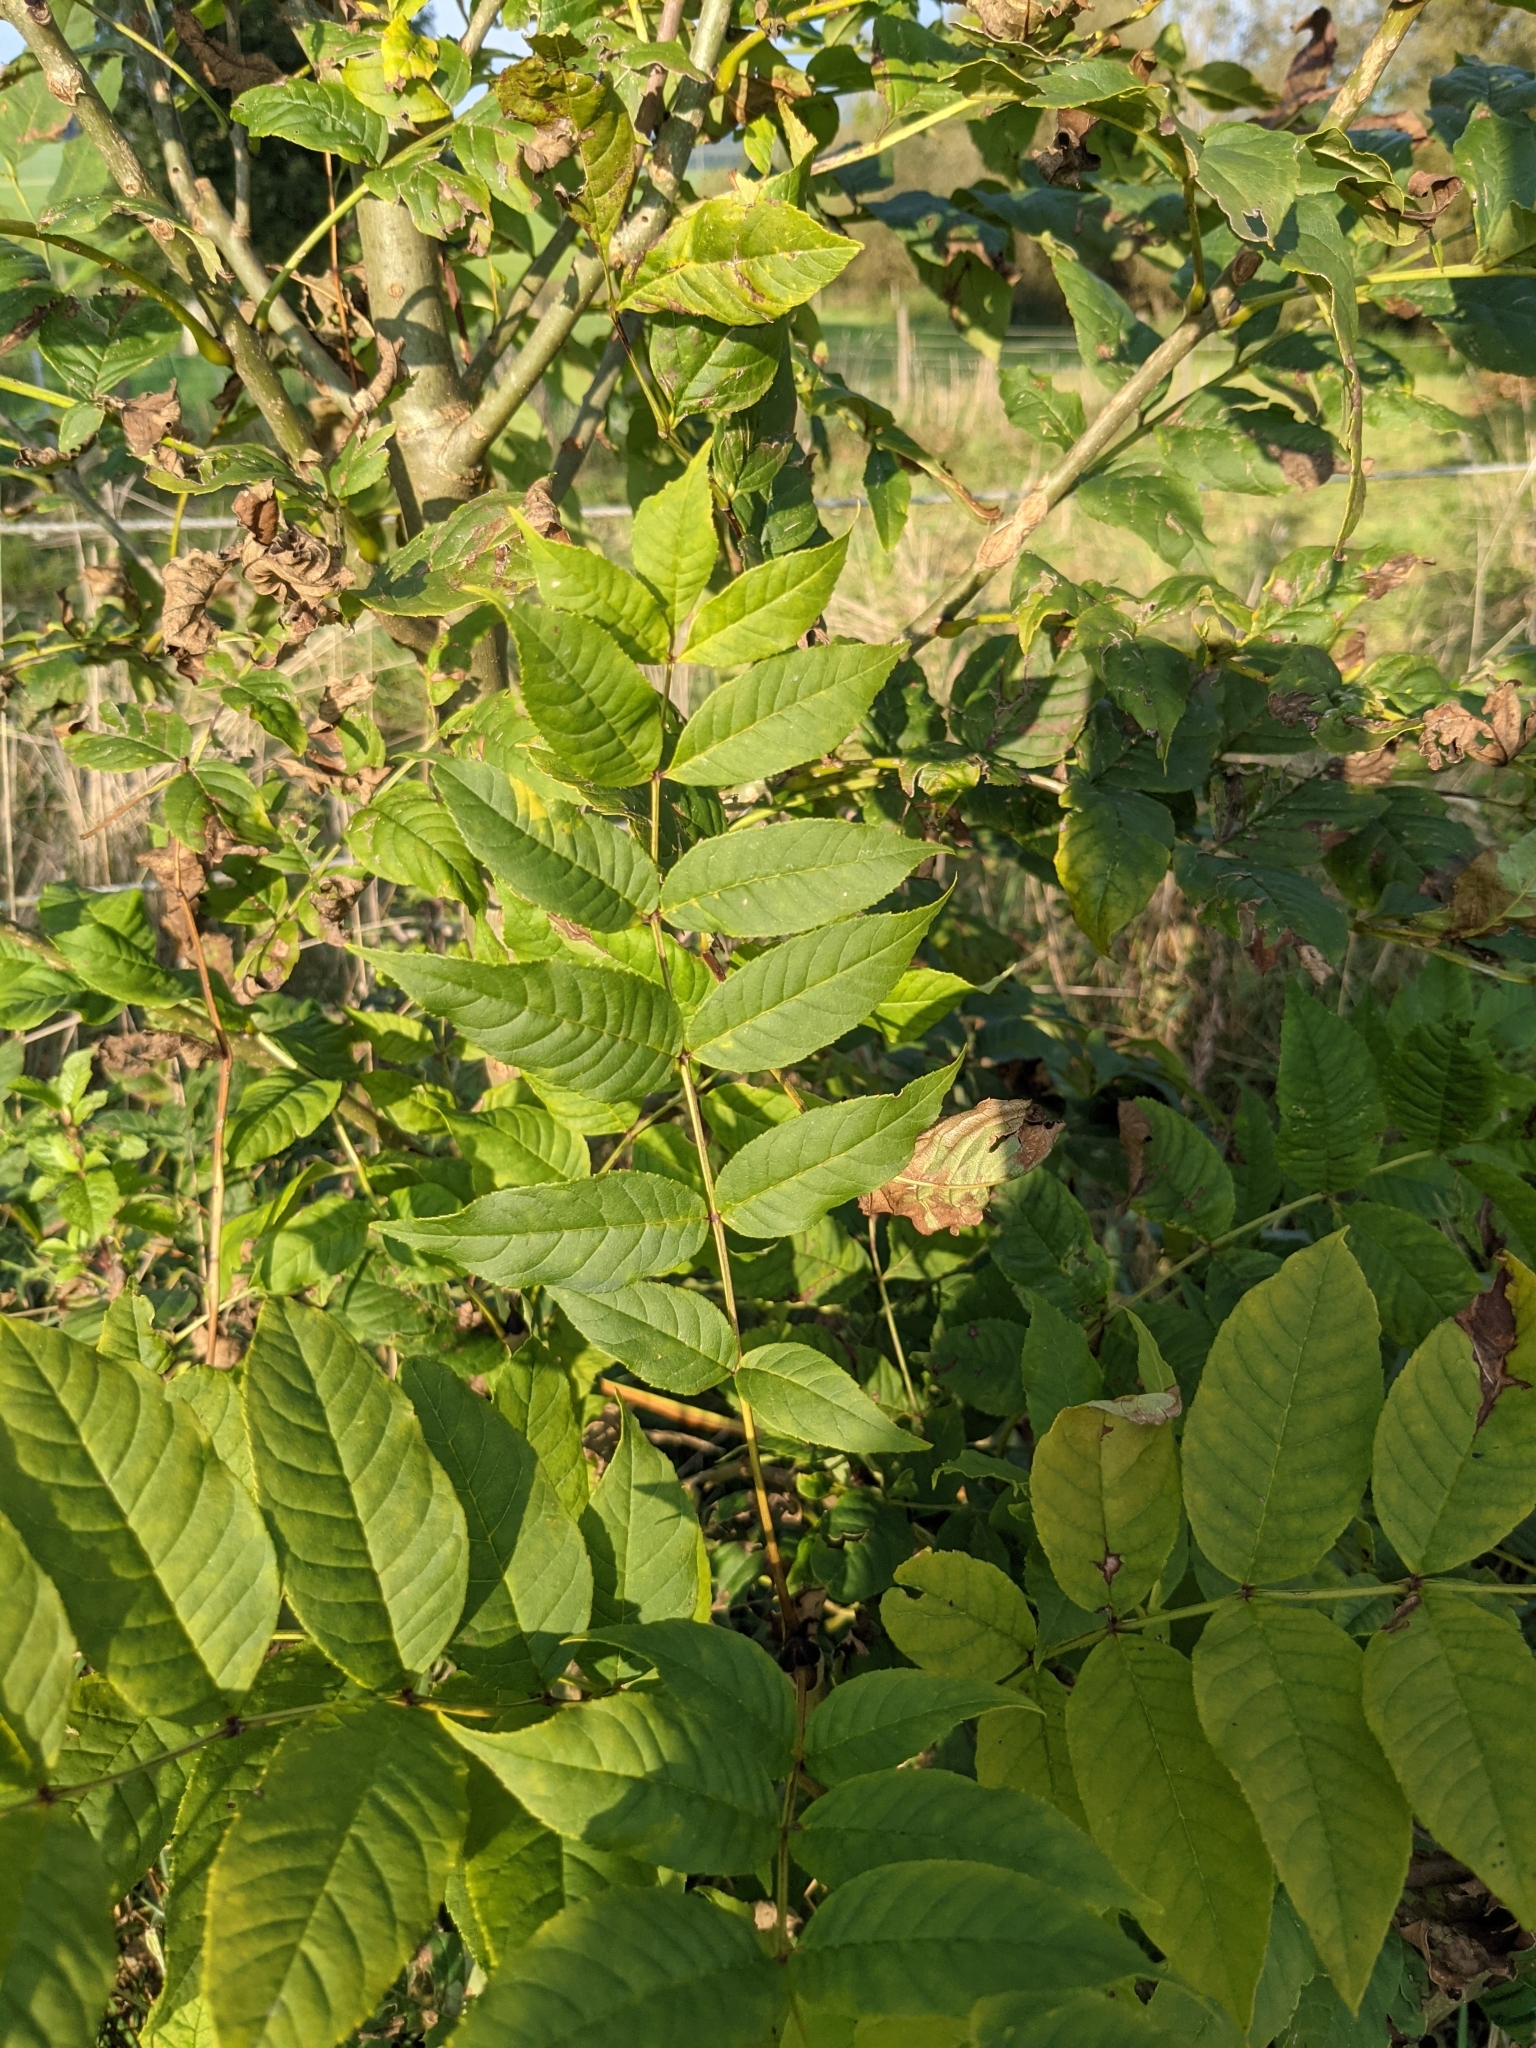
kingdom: Plantae
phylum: Tracheophyta
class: Magnoliopsida
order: Lamiales
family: Oleaceae
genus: Fraxinus
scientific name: Fraxinus excelsior
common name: European ash
